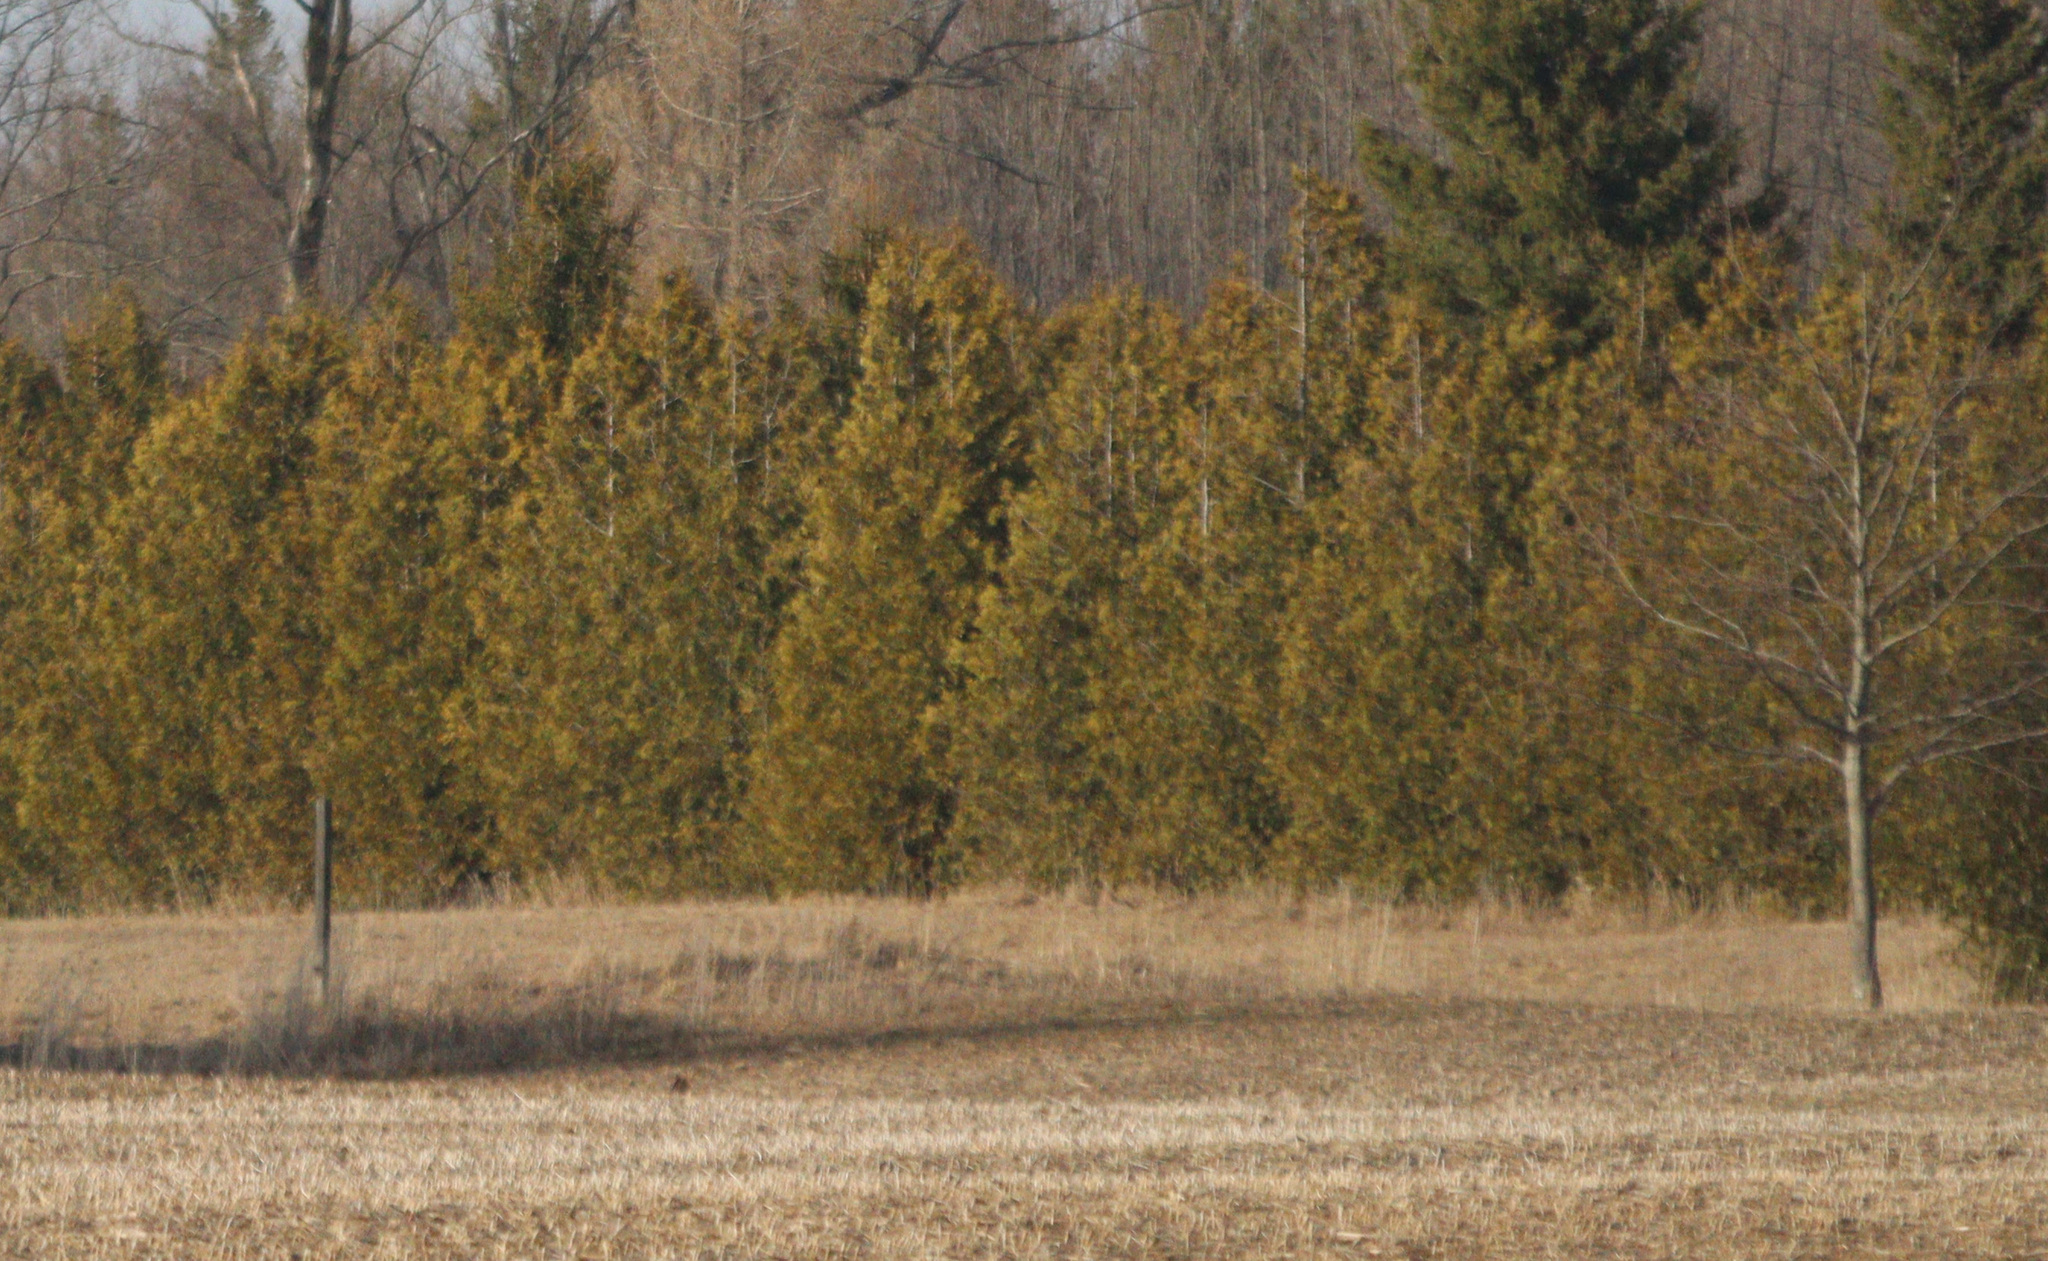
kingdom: Plantae
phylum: Tracheophyta
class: Pinopsida
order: Pinales
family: Cupressaceae
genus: Thuja
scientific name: Thuja occidentalis
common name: Northern white-cedar
